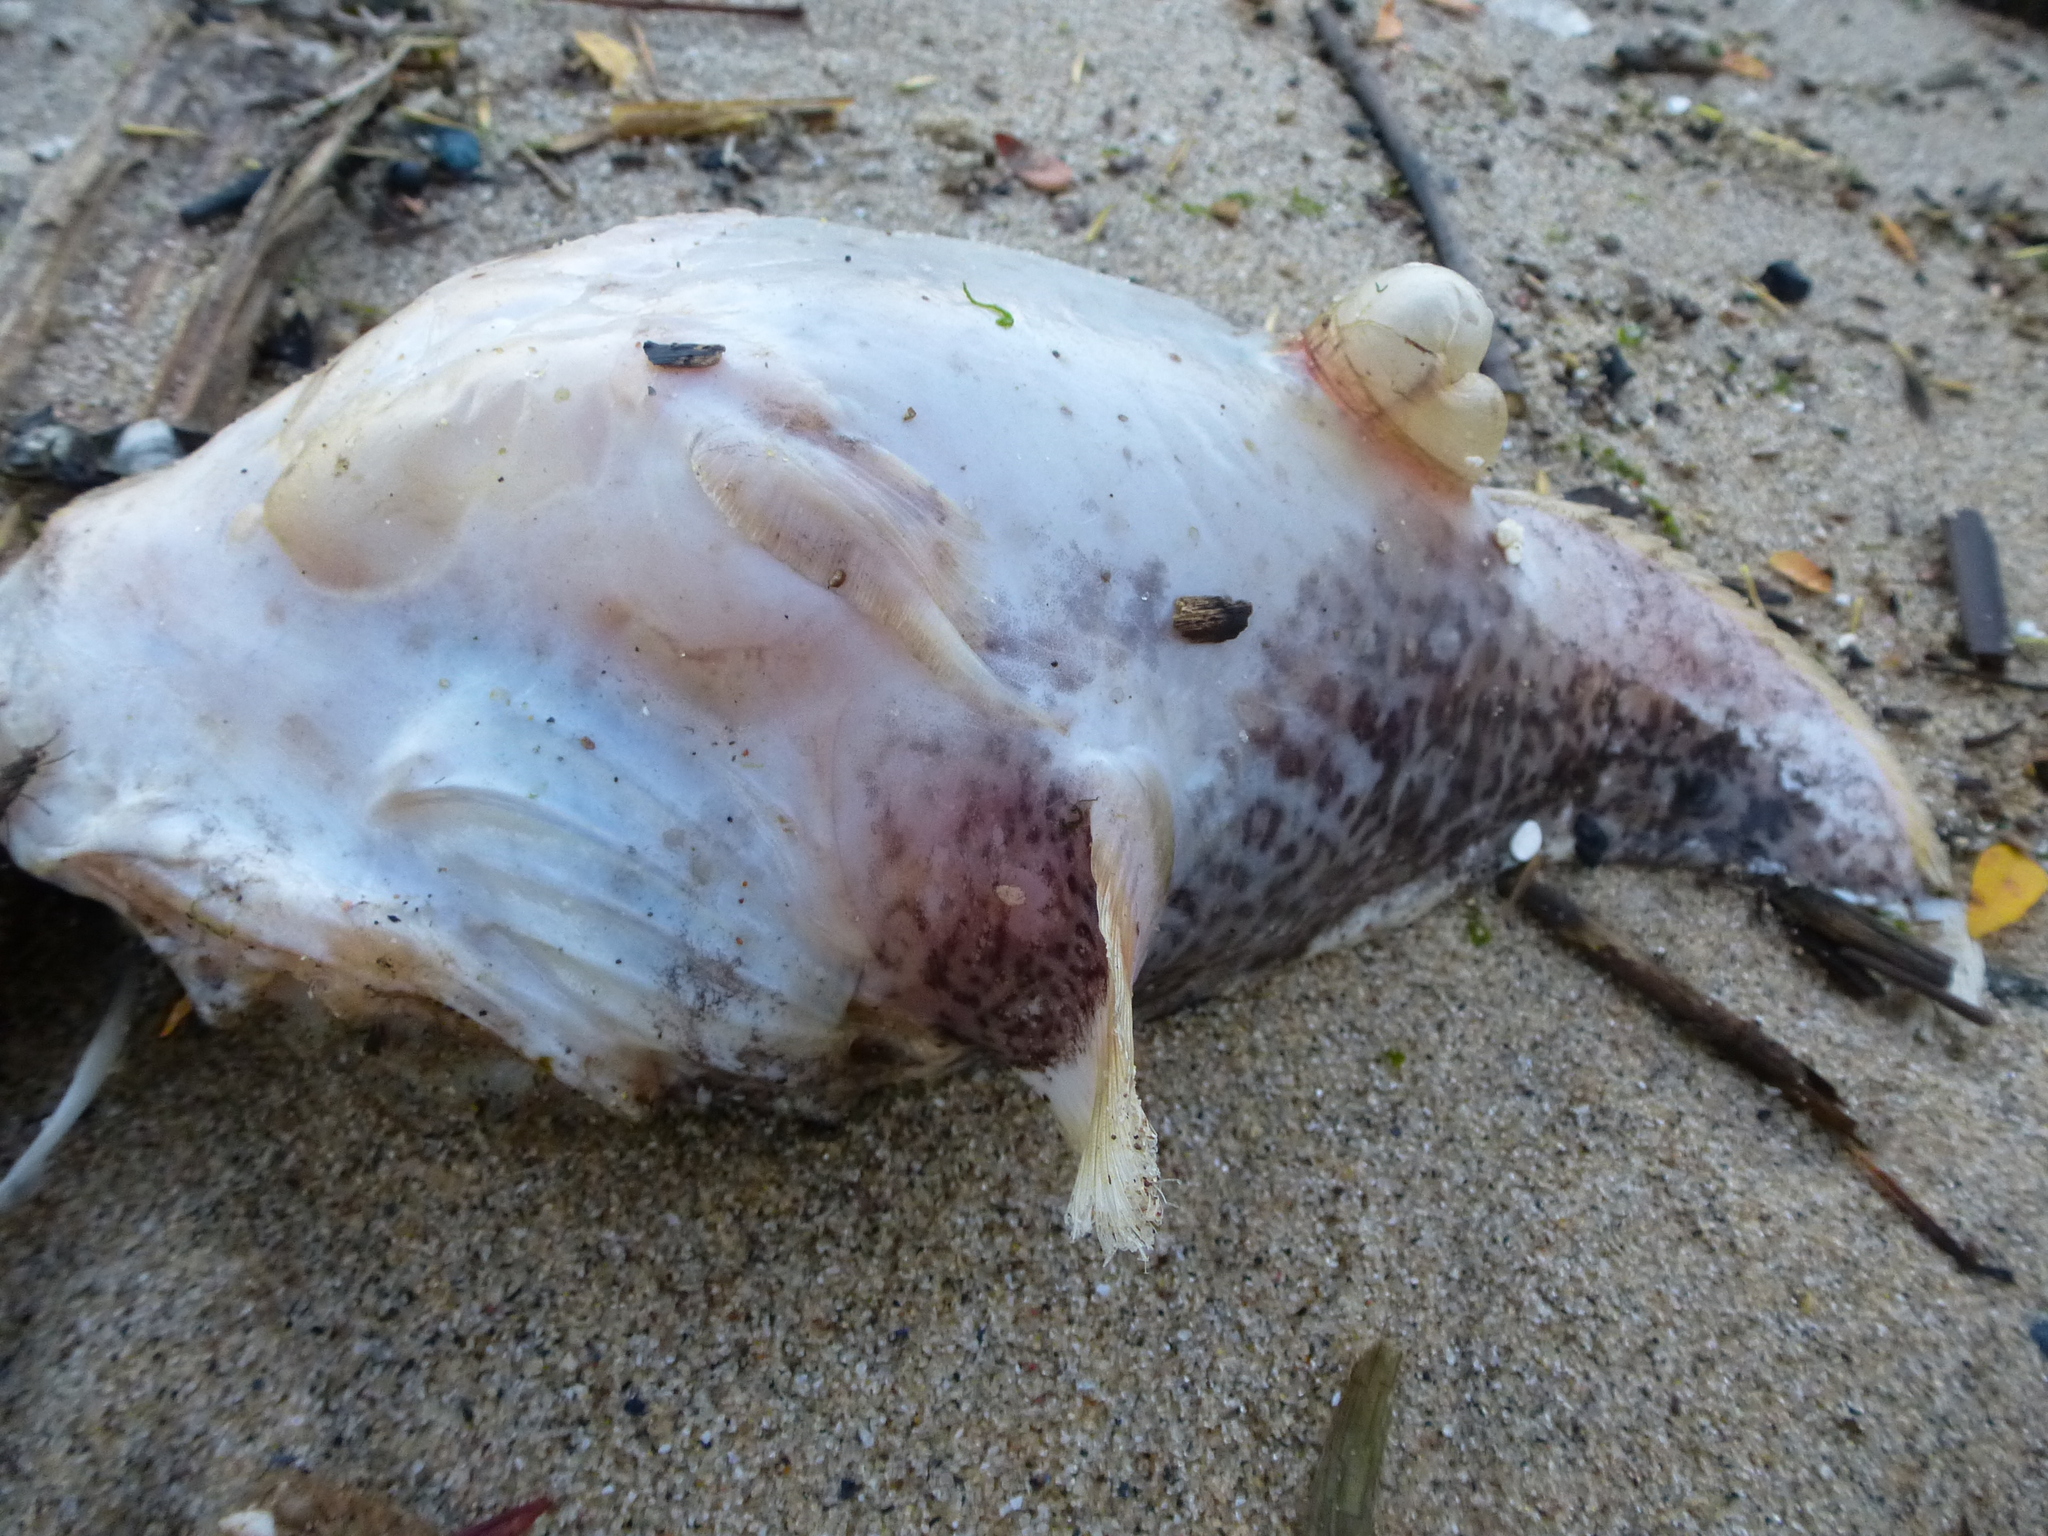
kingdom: Animalia
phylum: Chordata
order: Batrachoidiformes
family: Batrachoididae
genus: Opsanus
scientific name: Opsanus tau
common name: Oyster toadfish
